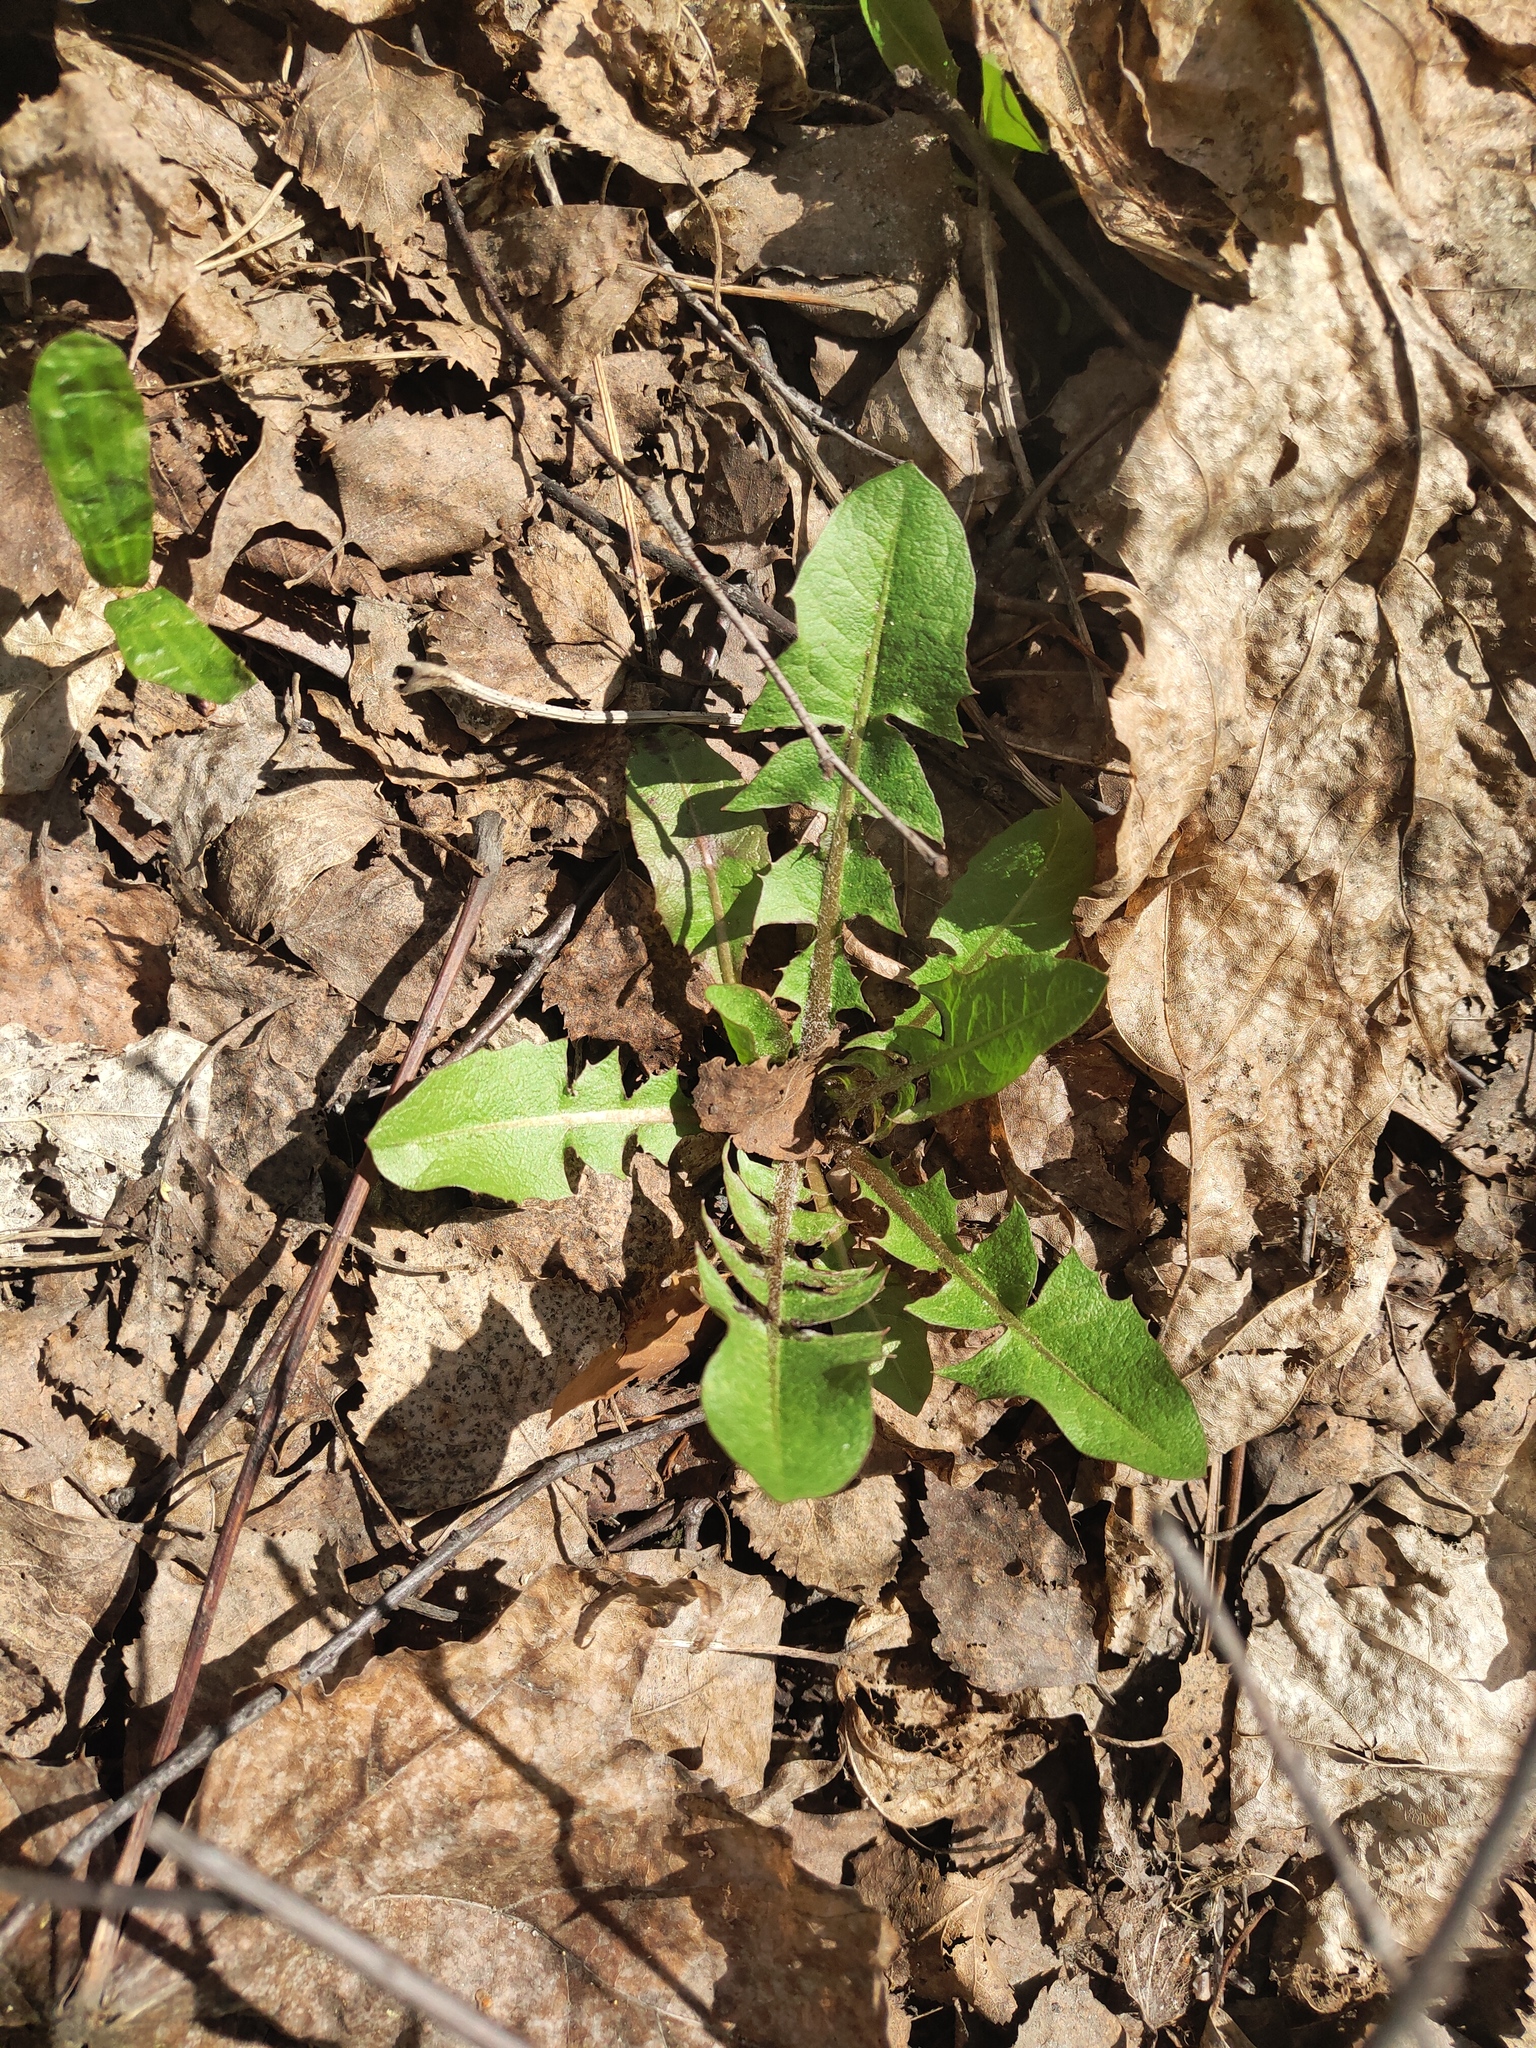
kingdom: Plantae
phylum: Tracheophyta
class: Magnoliopsida
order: Asterales
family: Asteraceae
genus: Taraxacum
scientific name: Taraxacum officinale
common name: Common dandelion
